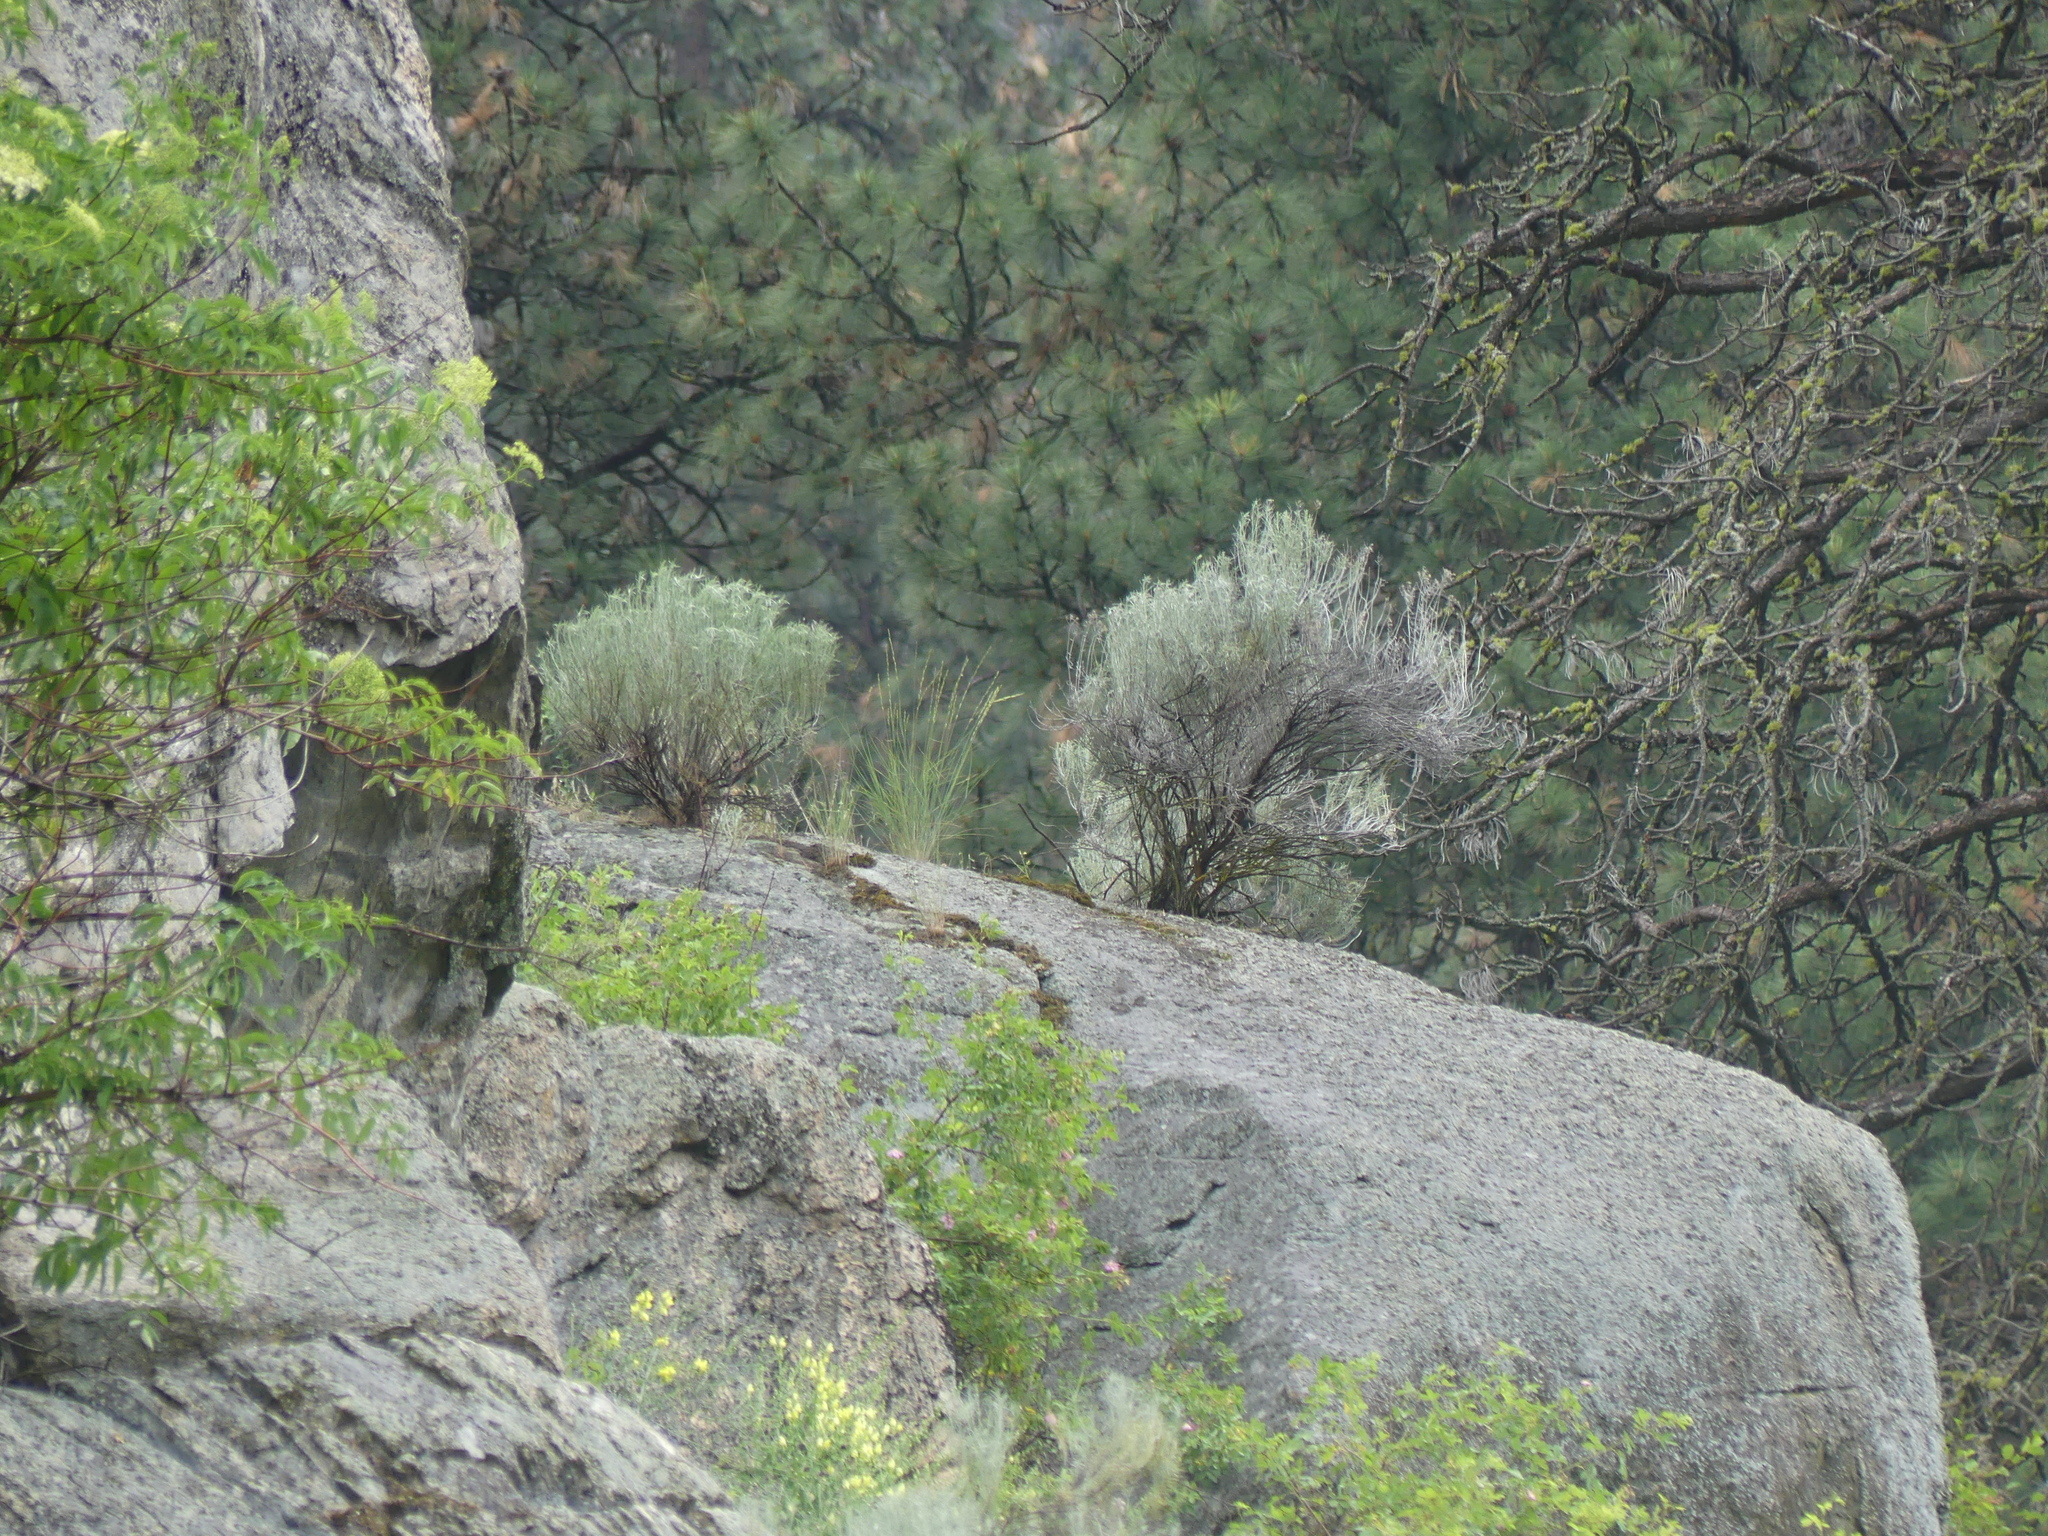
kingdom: Plantae
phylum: Tracheophyta
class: Magnoliopsida
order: Asterales
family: Asteraceae
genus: Ericameria
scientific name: Ericameria nauseosa
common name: Rubber rabbitbrush
